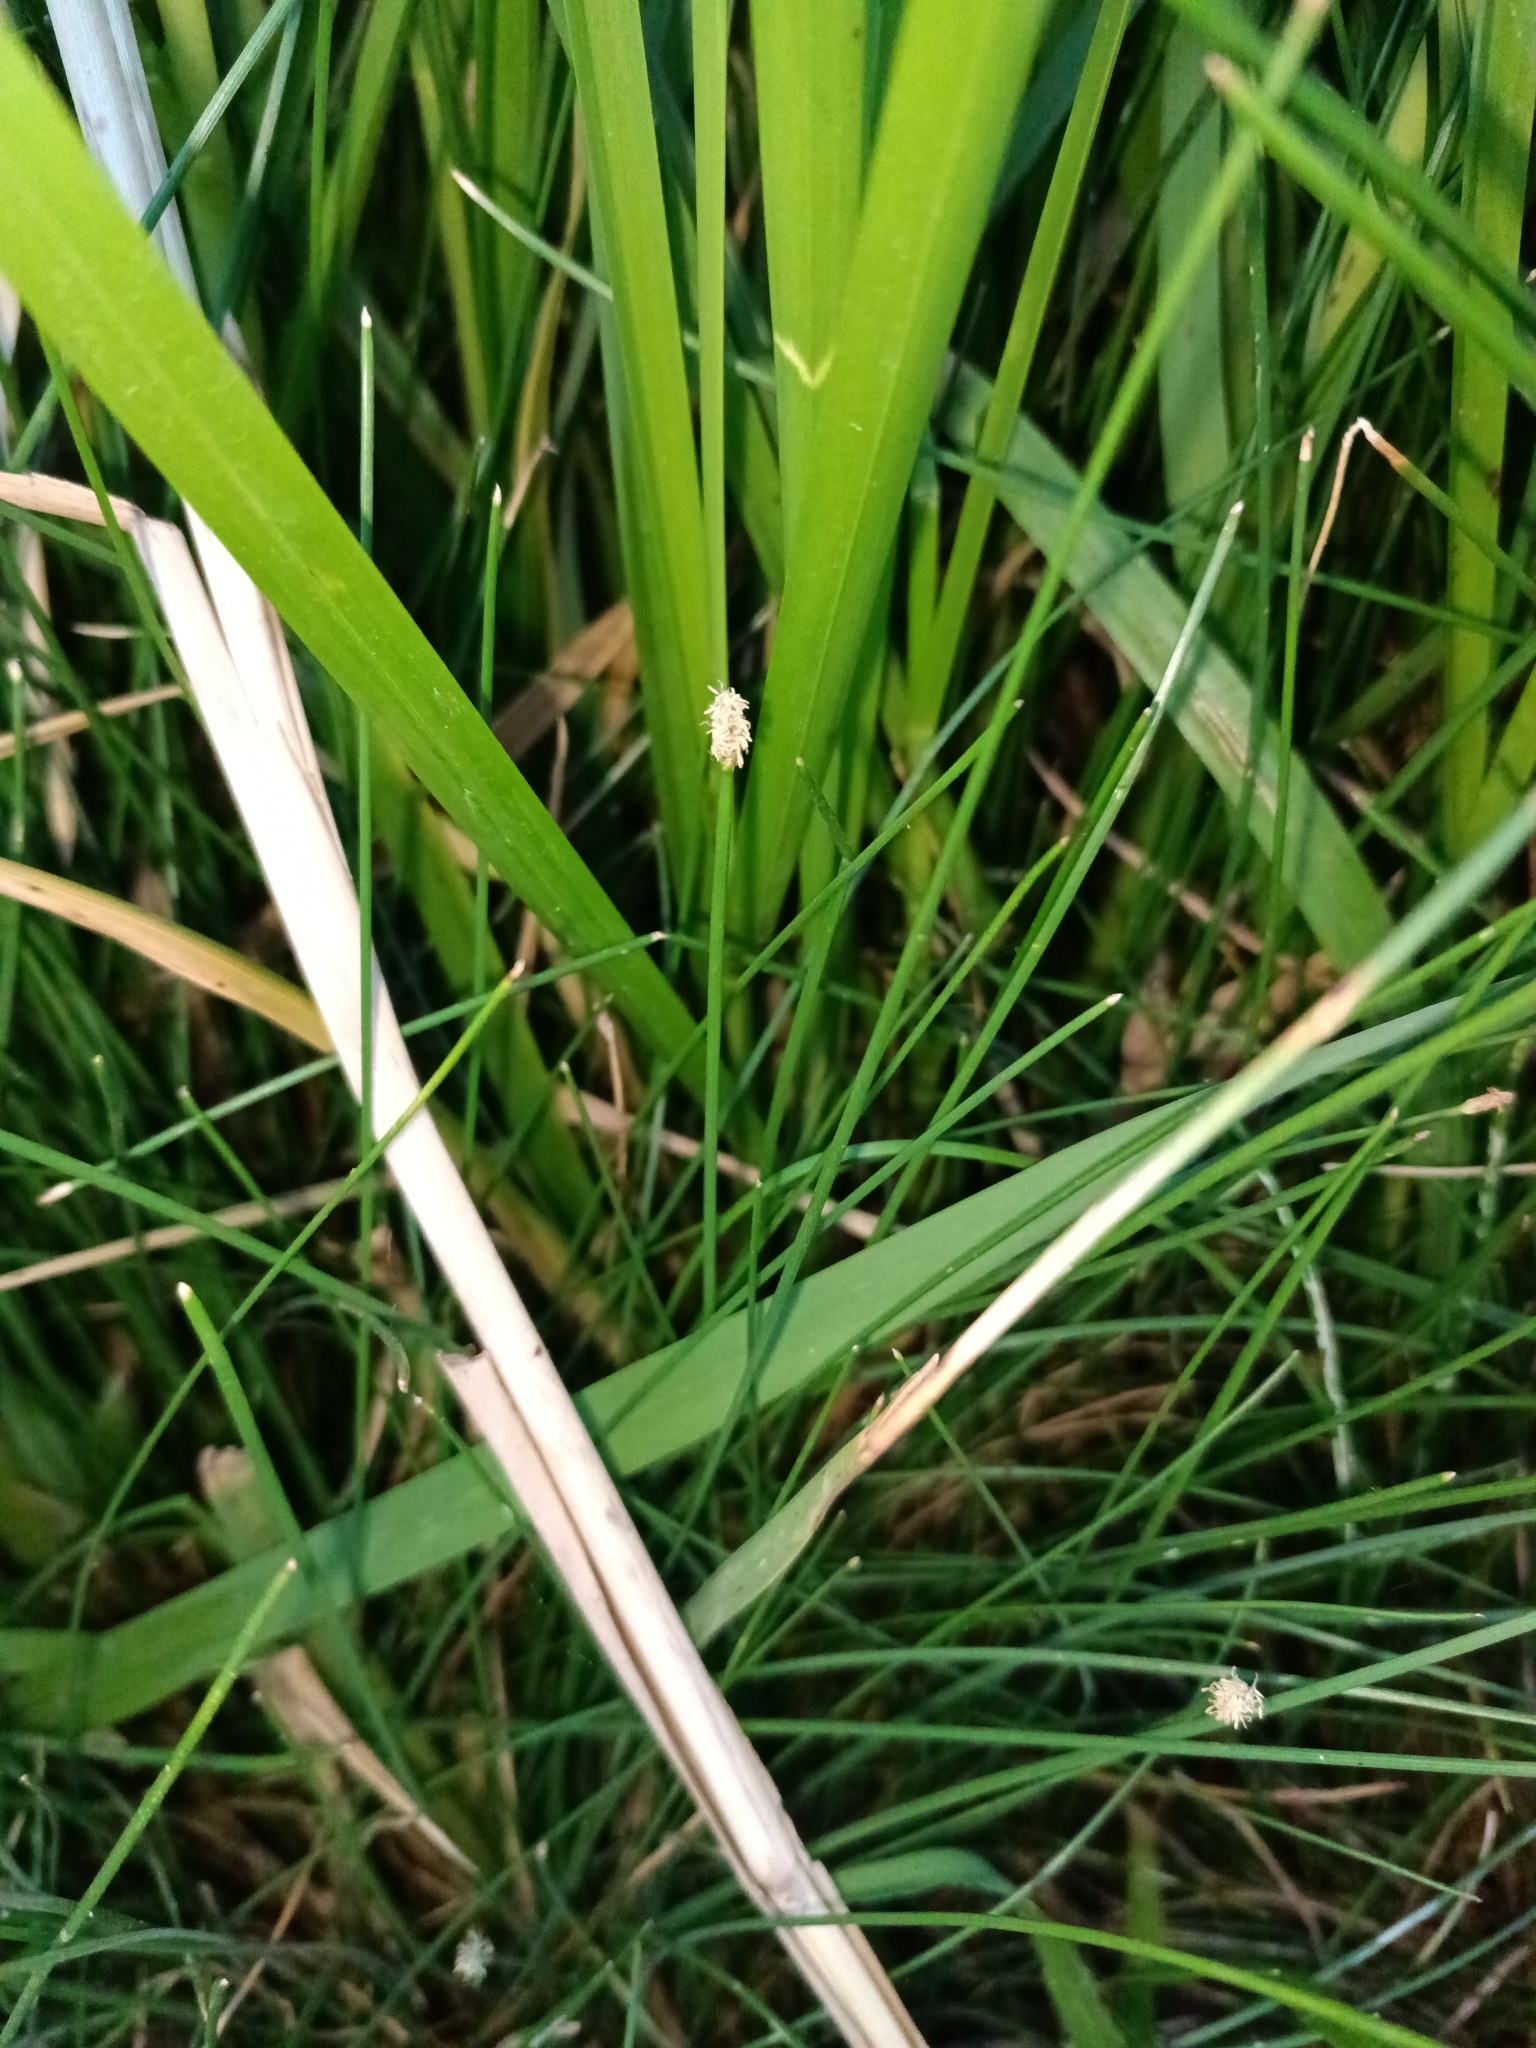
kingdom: Plantae
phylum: Tracheophyta
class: Liliopsida
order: Poales
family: Cyperaceae
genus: Eleocharis
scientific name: Eleocharis palustris
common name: Common spike-rush
